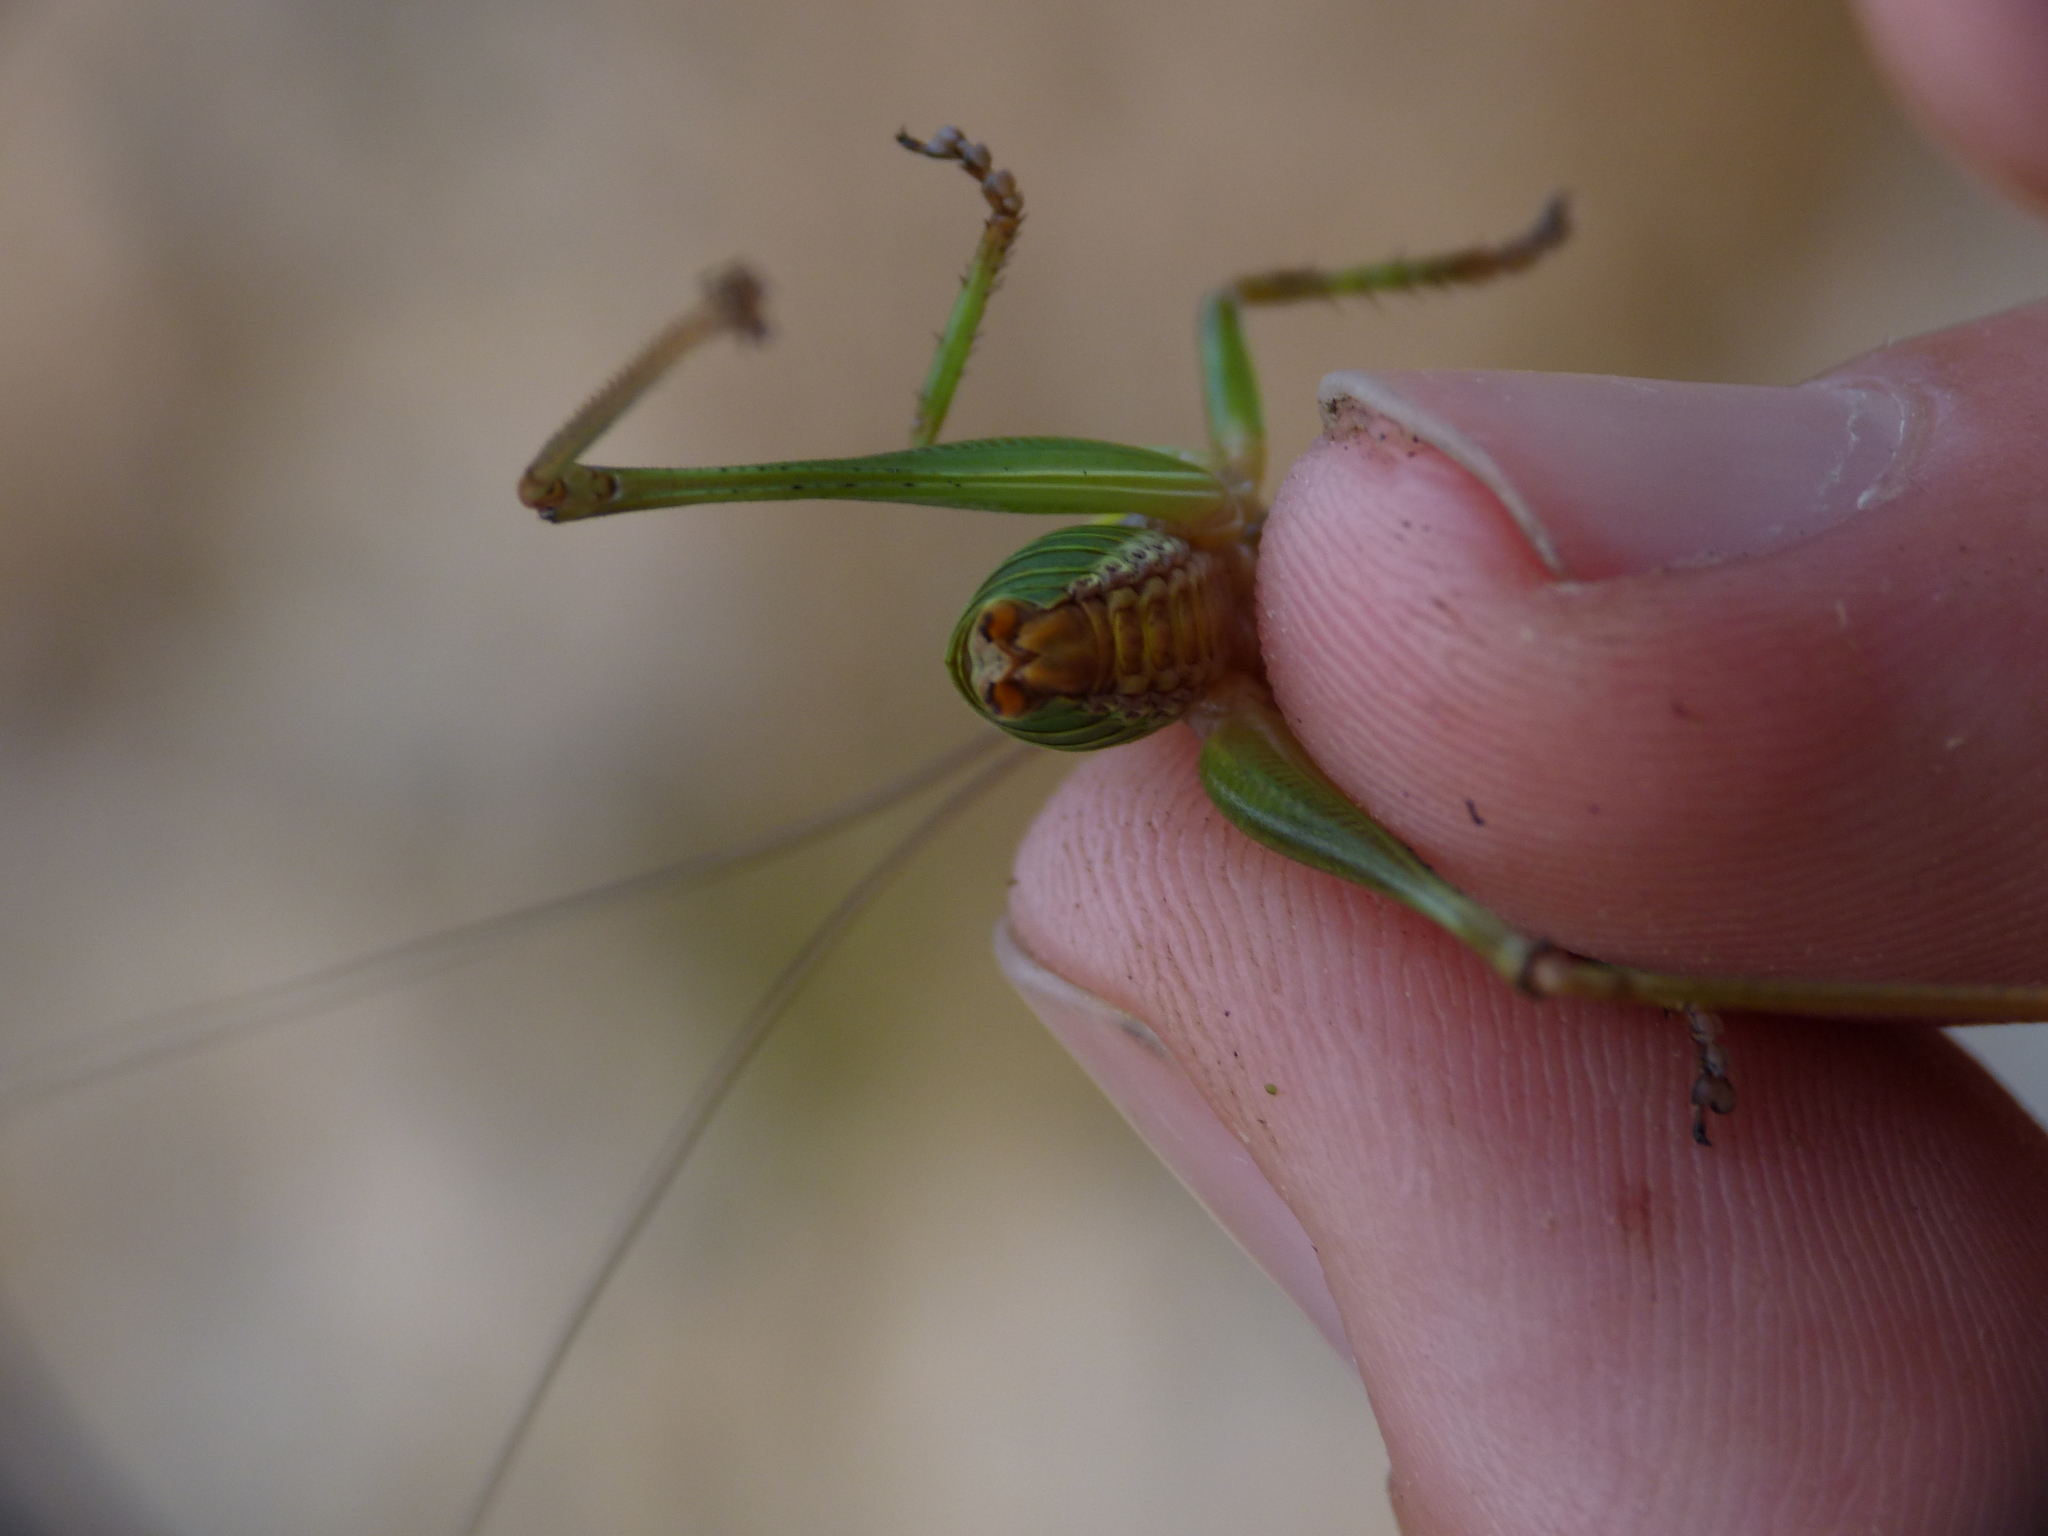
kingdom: Animalia
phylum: Arthropoda
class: Insecta
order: Orthoptera
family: Tettigoniidae
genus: Antaxius
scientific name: Antaxius sorrezensis
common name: French mountain bush-cricket
